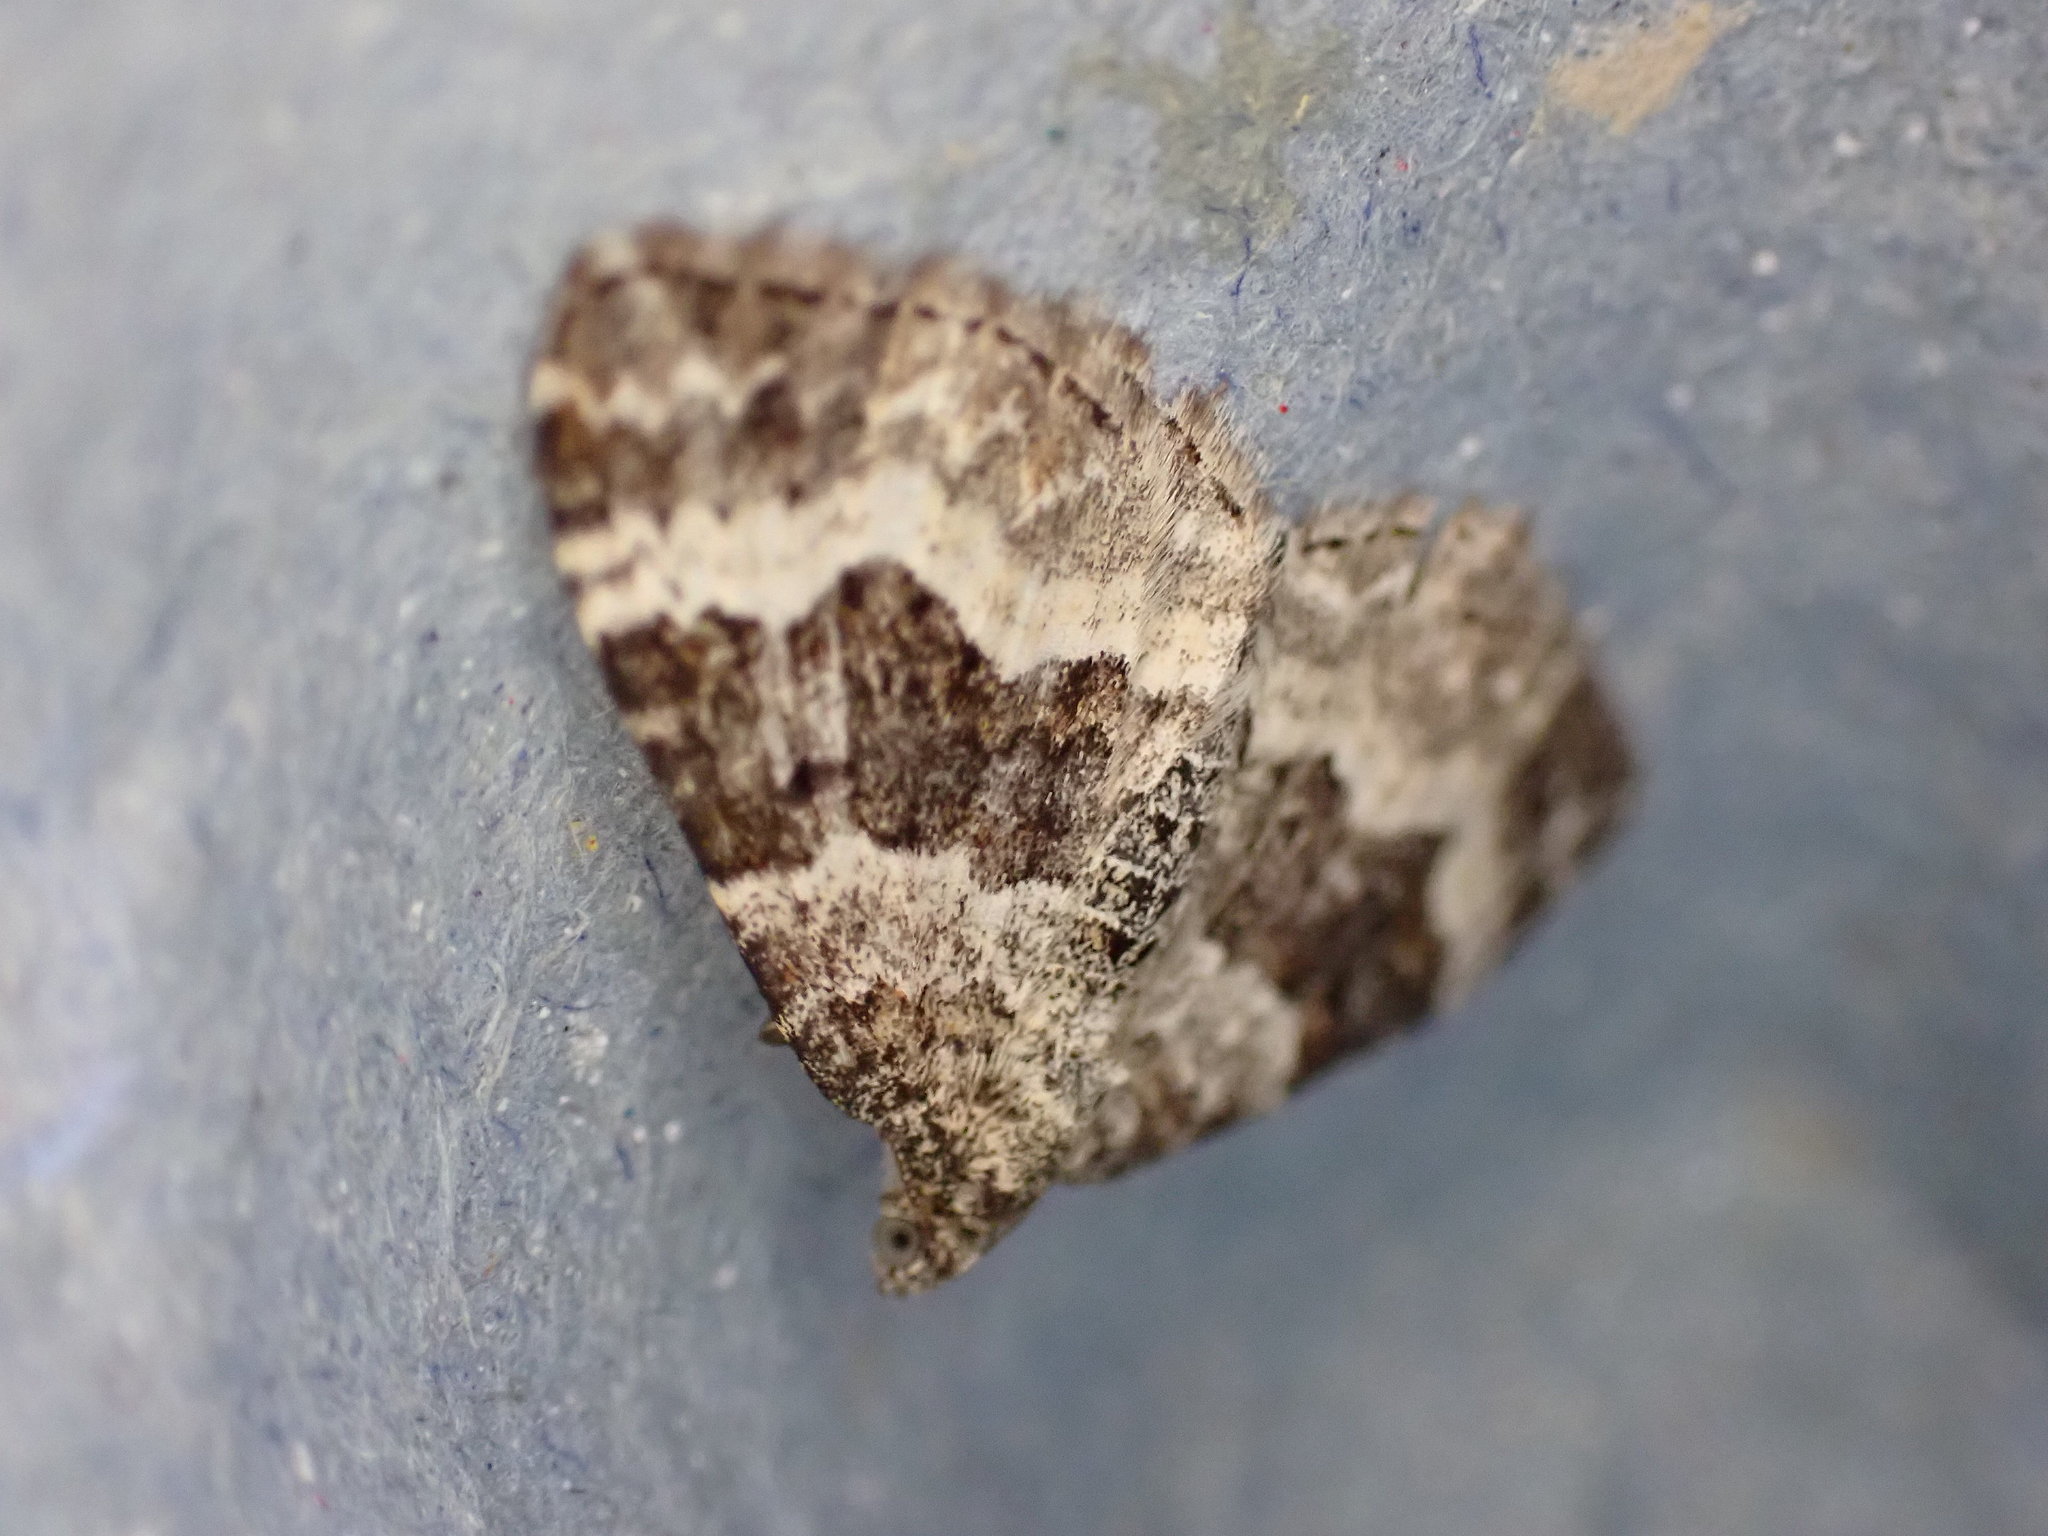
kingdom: Animalia
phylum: Arthropoda
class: Insecta
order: Lepidoptera
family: Geometridae
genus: Epirrhoe
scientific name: Epirrhoe alternata
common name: Common carpet
